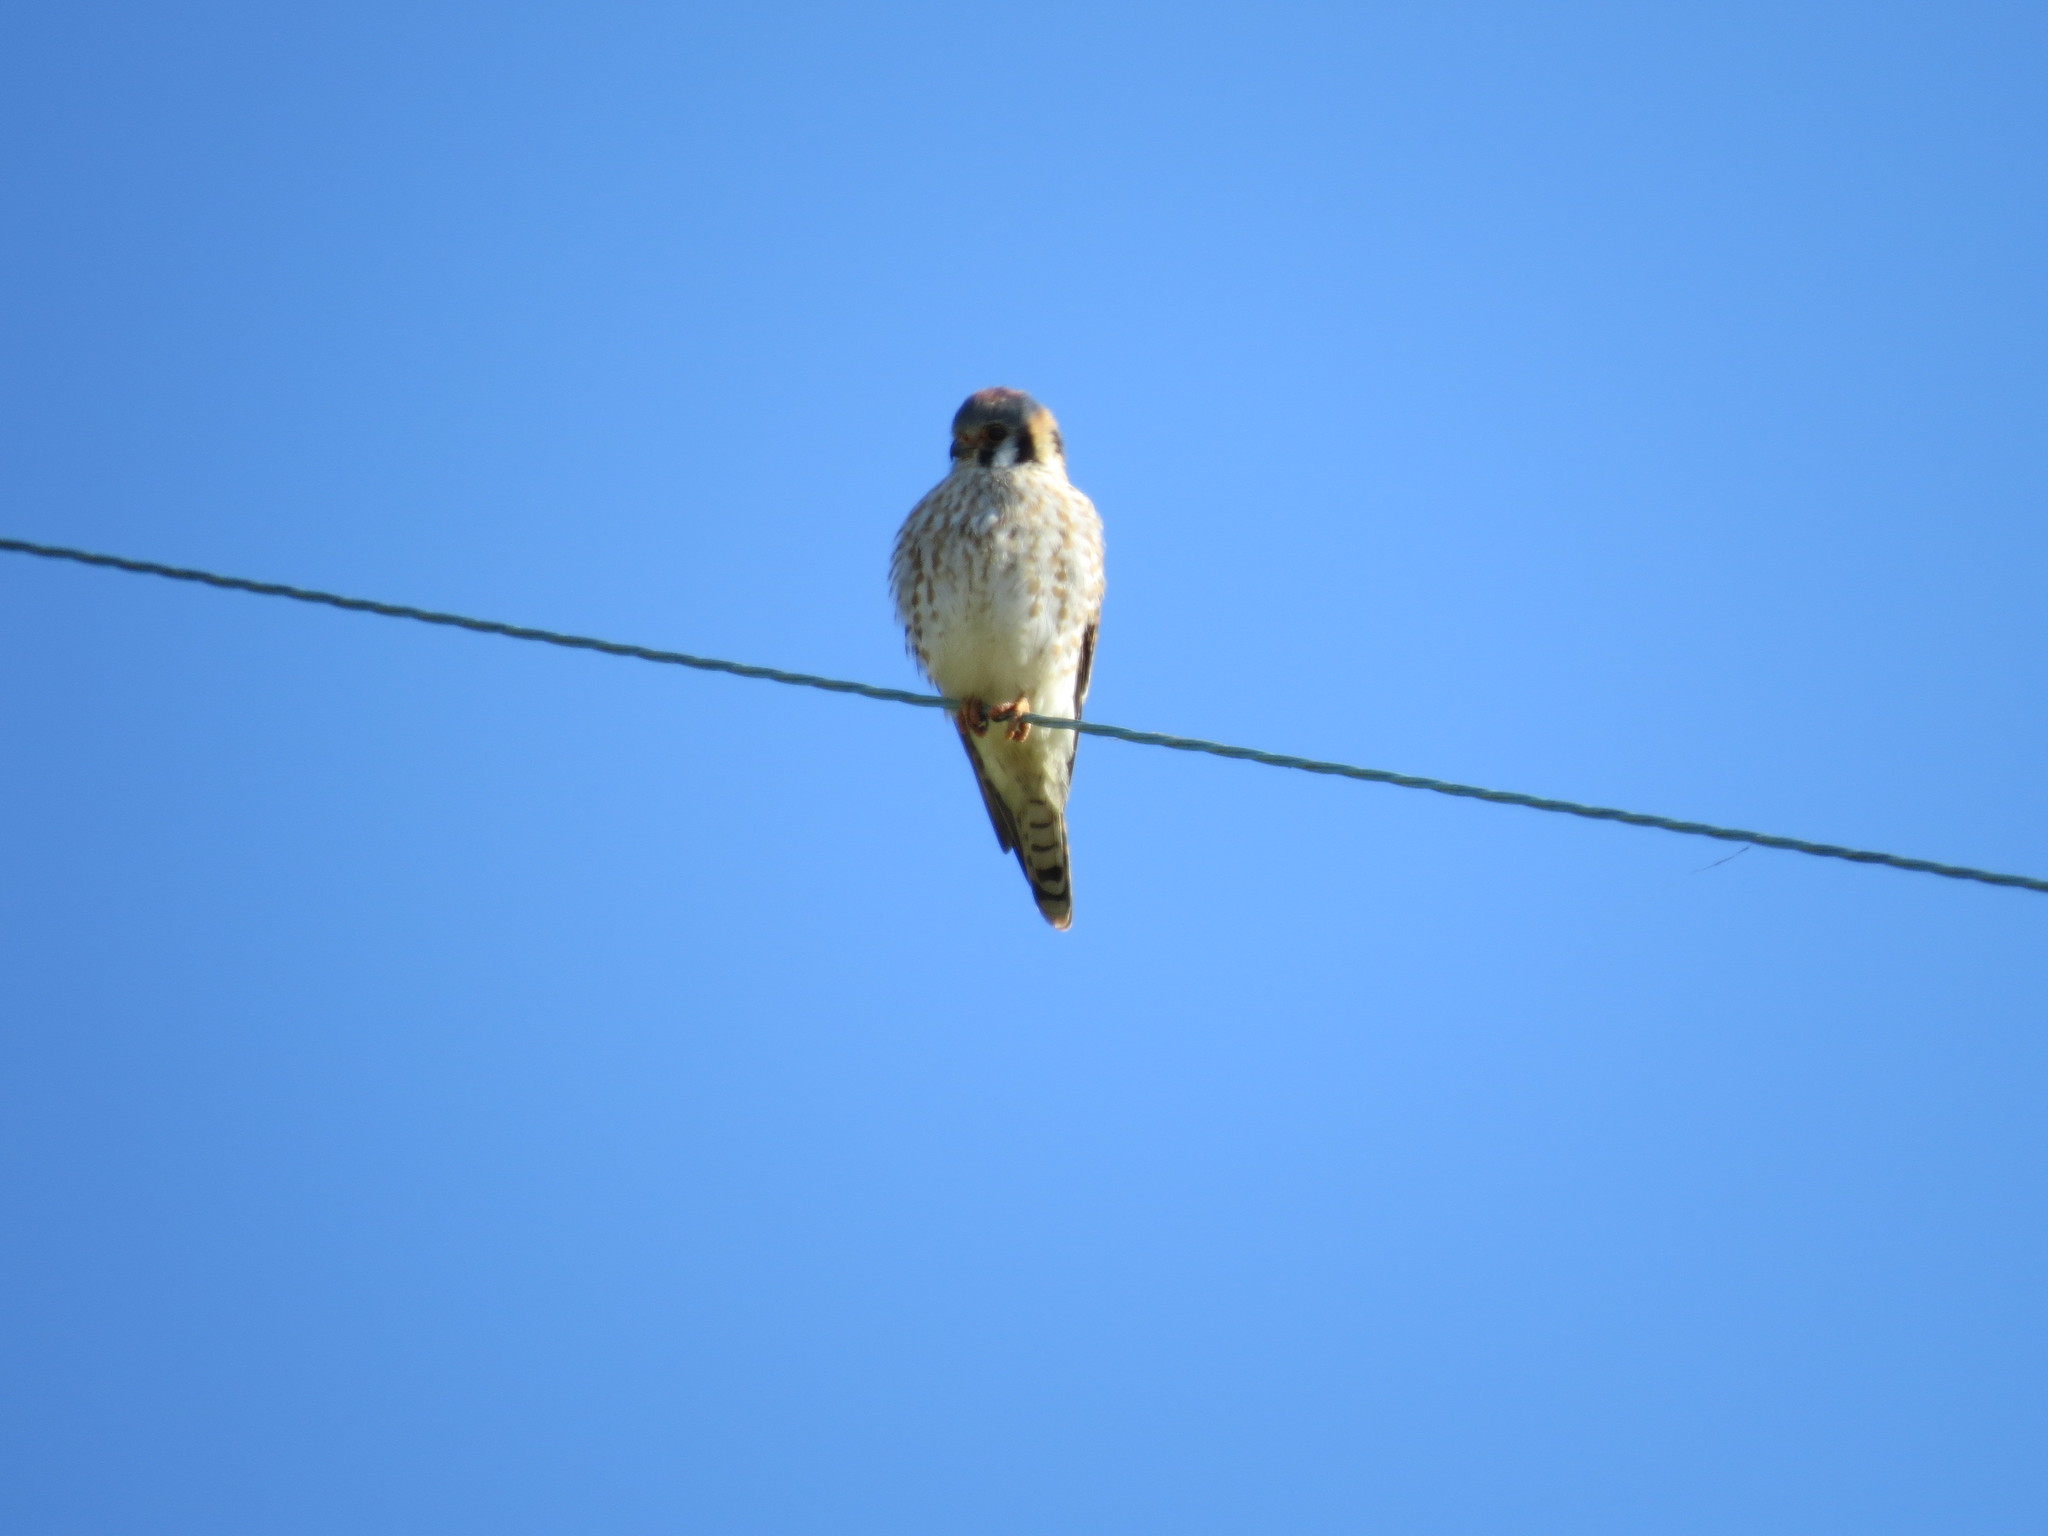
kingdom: Animalia
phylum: Chordata
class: Aves
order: Falconiformes
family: Falconidae
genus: Falco
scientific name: Falco sparverius
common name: American kestrel
